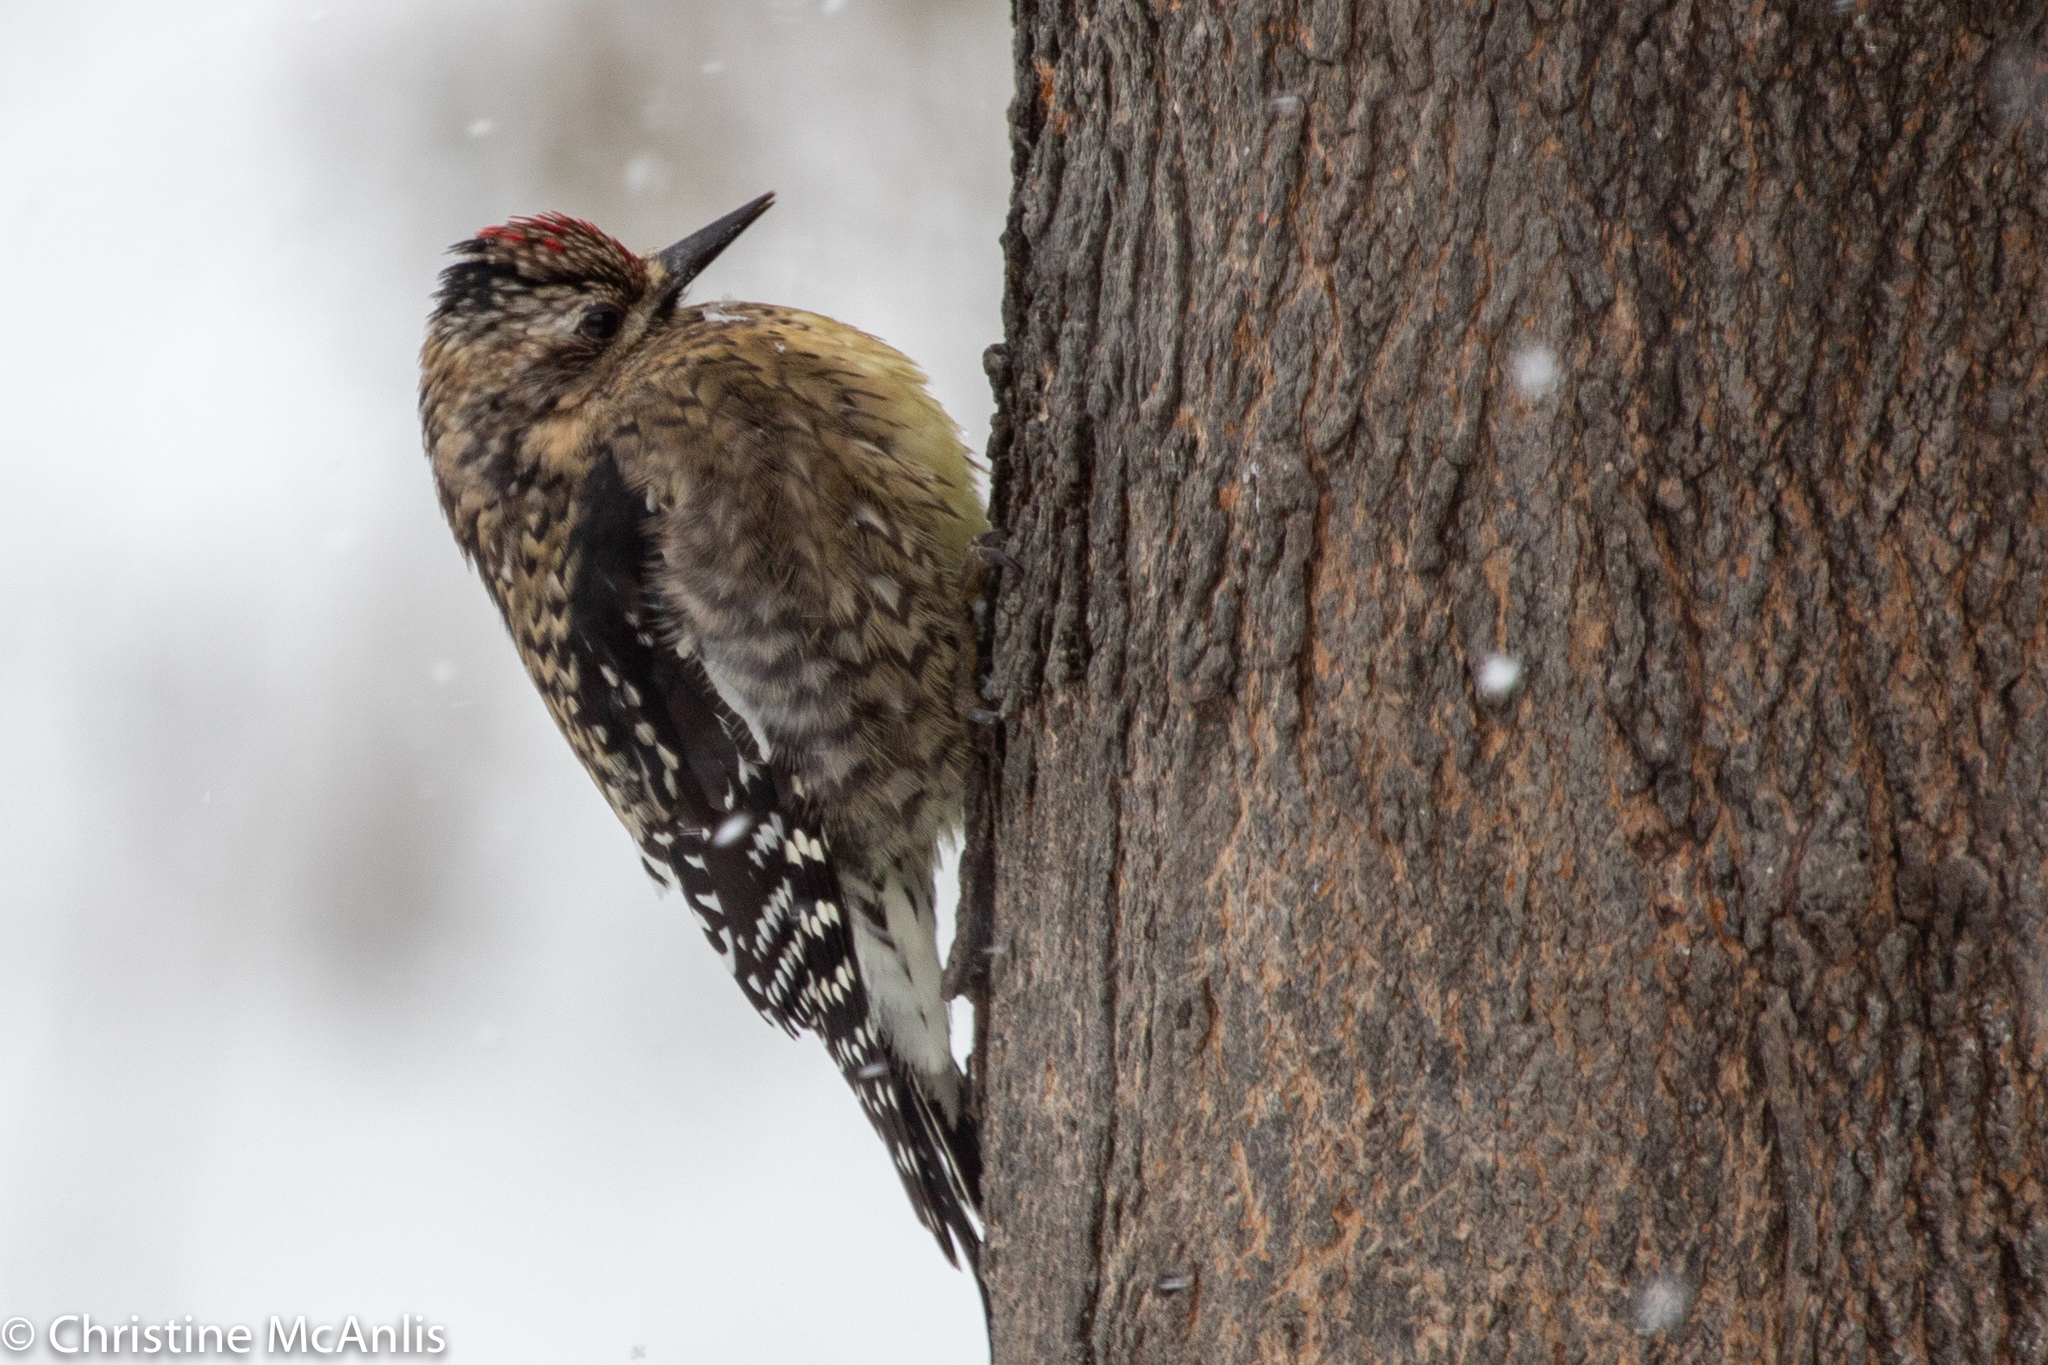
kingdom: Animalia
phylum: Chordata
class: Aves
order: Piciformes
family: Picidae
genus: Sphyrapicus
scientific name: Sphyrapicus varius
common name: Yellow-bellied sapsucker
